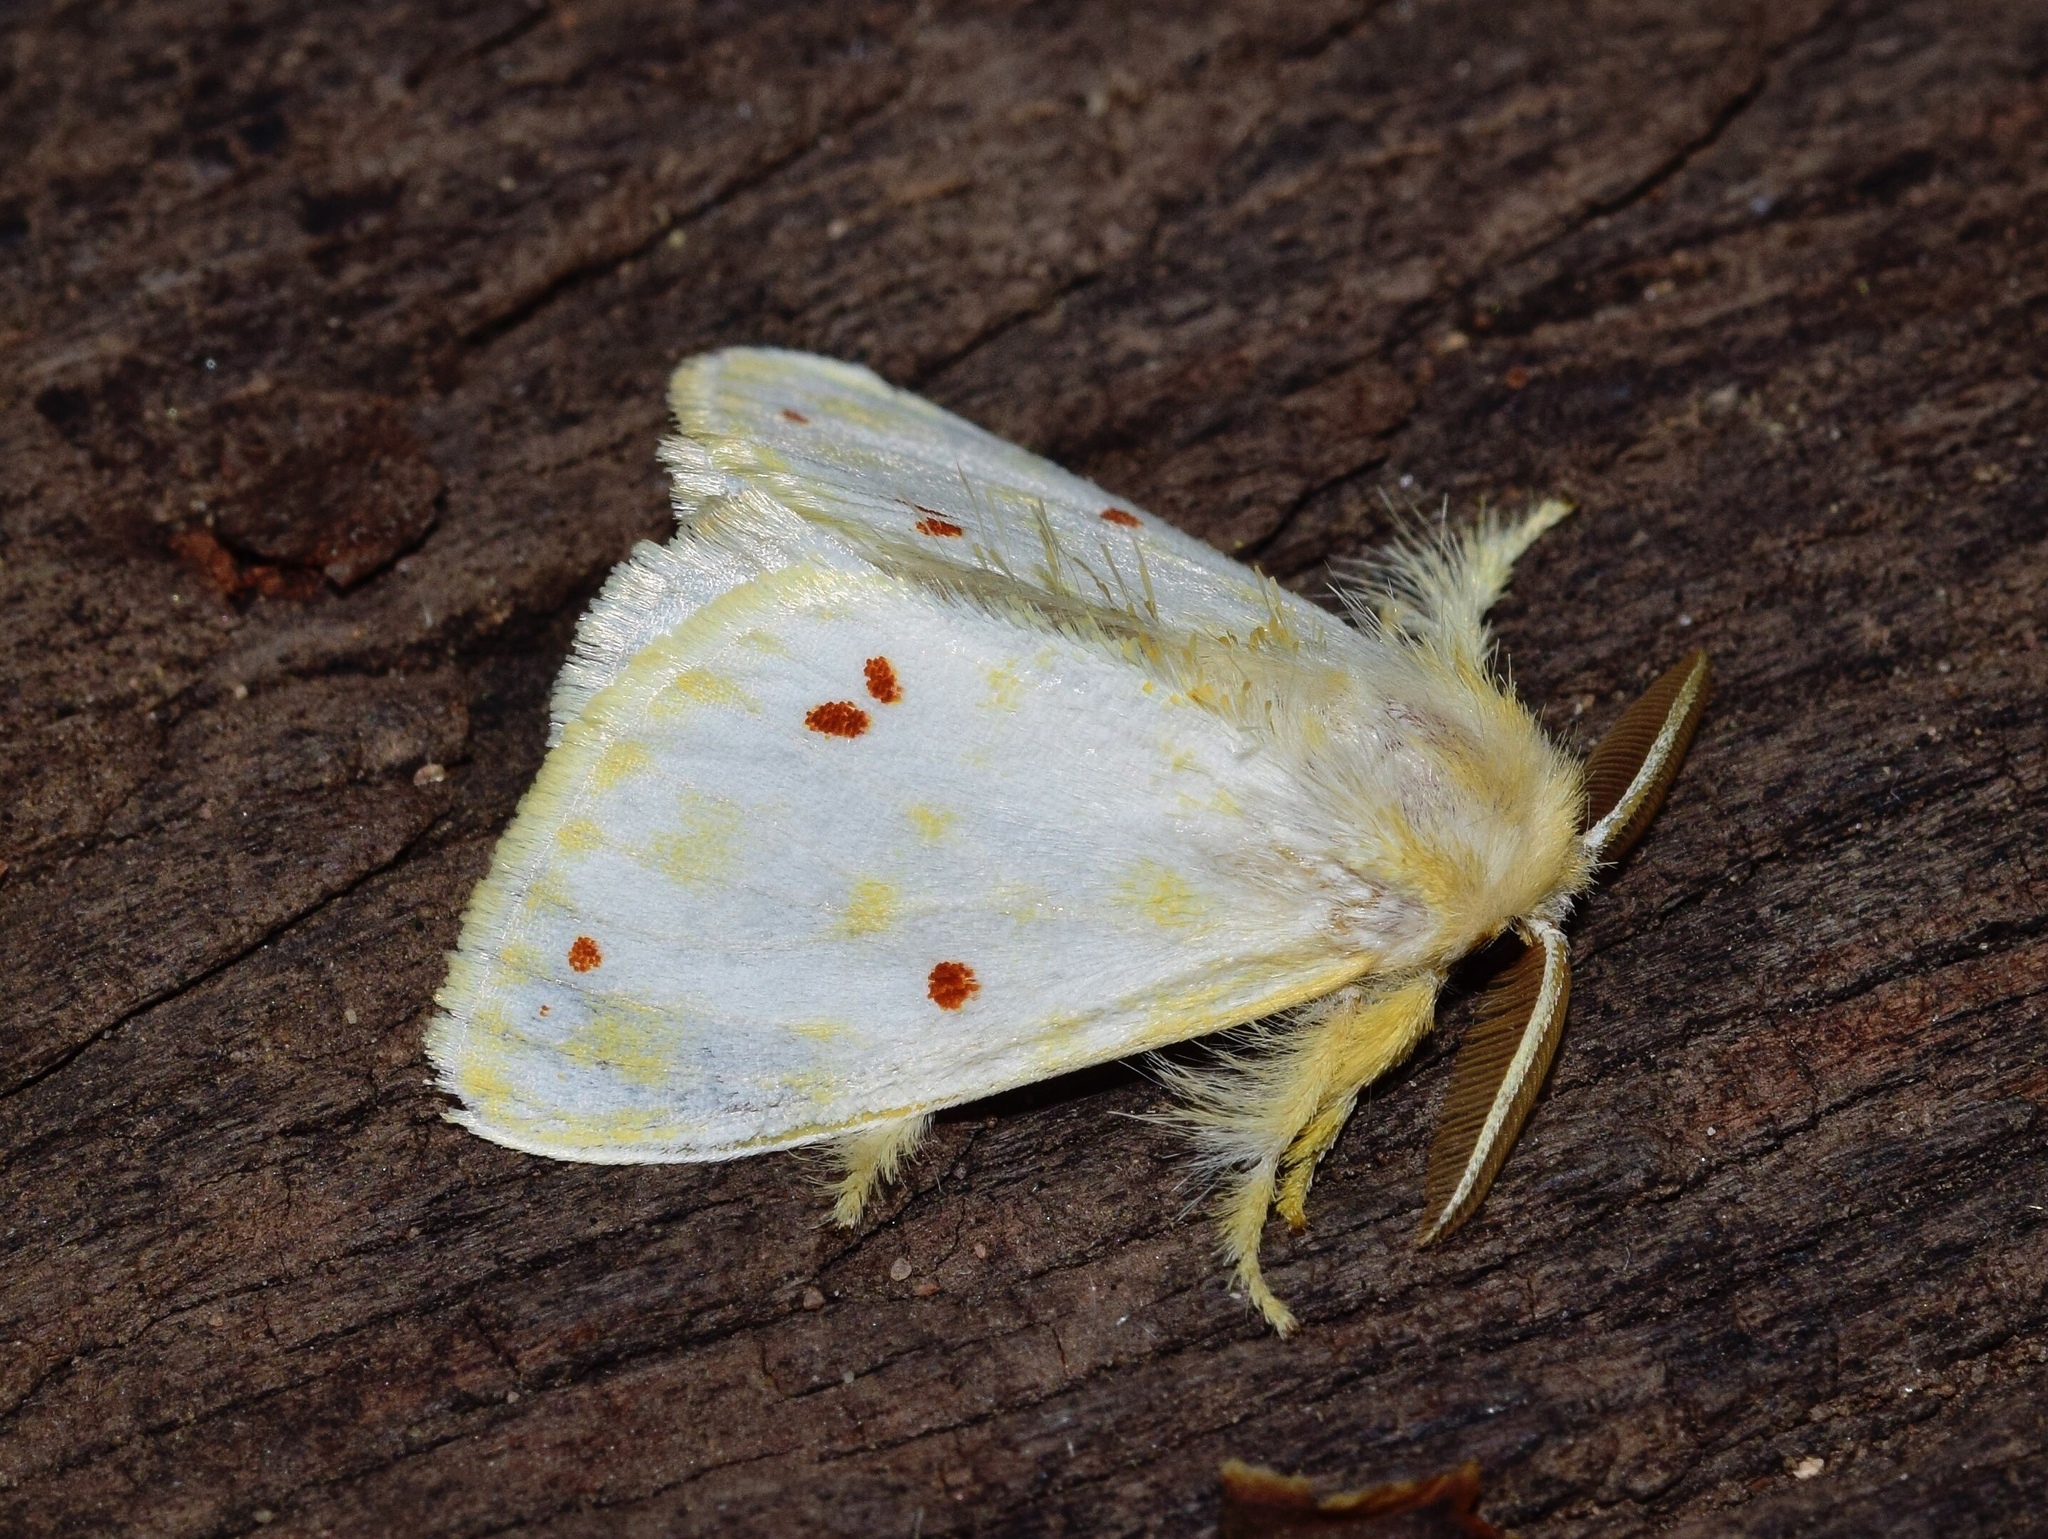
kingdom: Animalia
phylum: Arthropoda
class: Insecta
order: Lepidoptera
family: Erebidae
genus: Euproctis
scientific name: Euproctis rufopunctata
